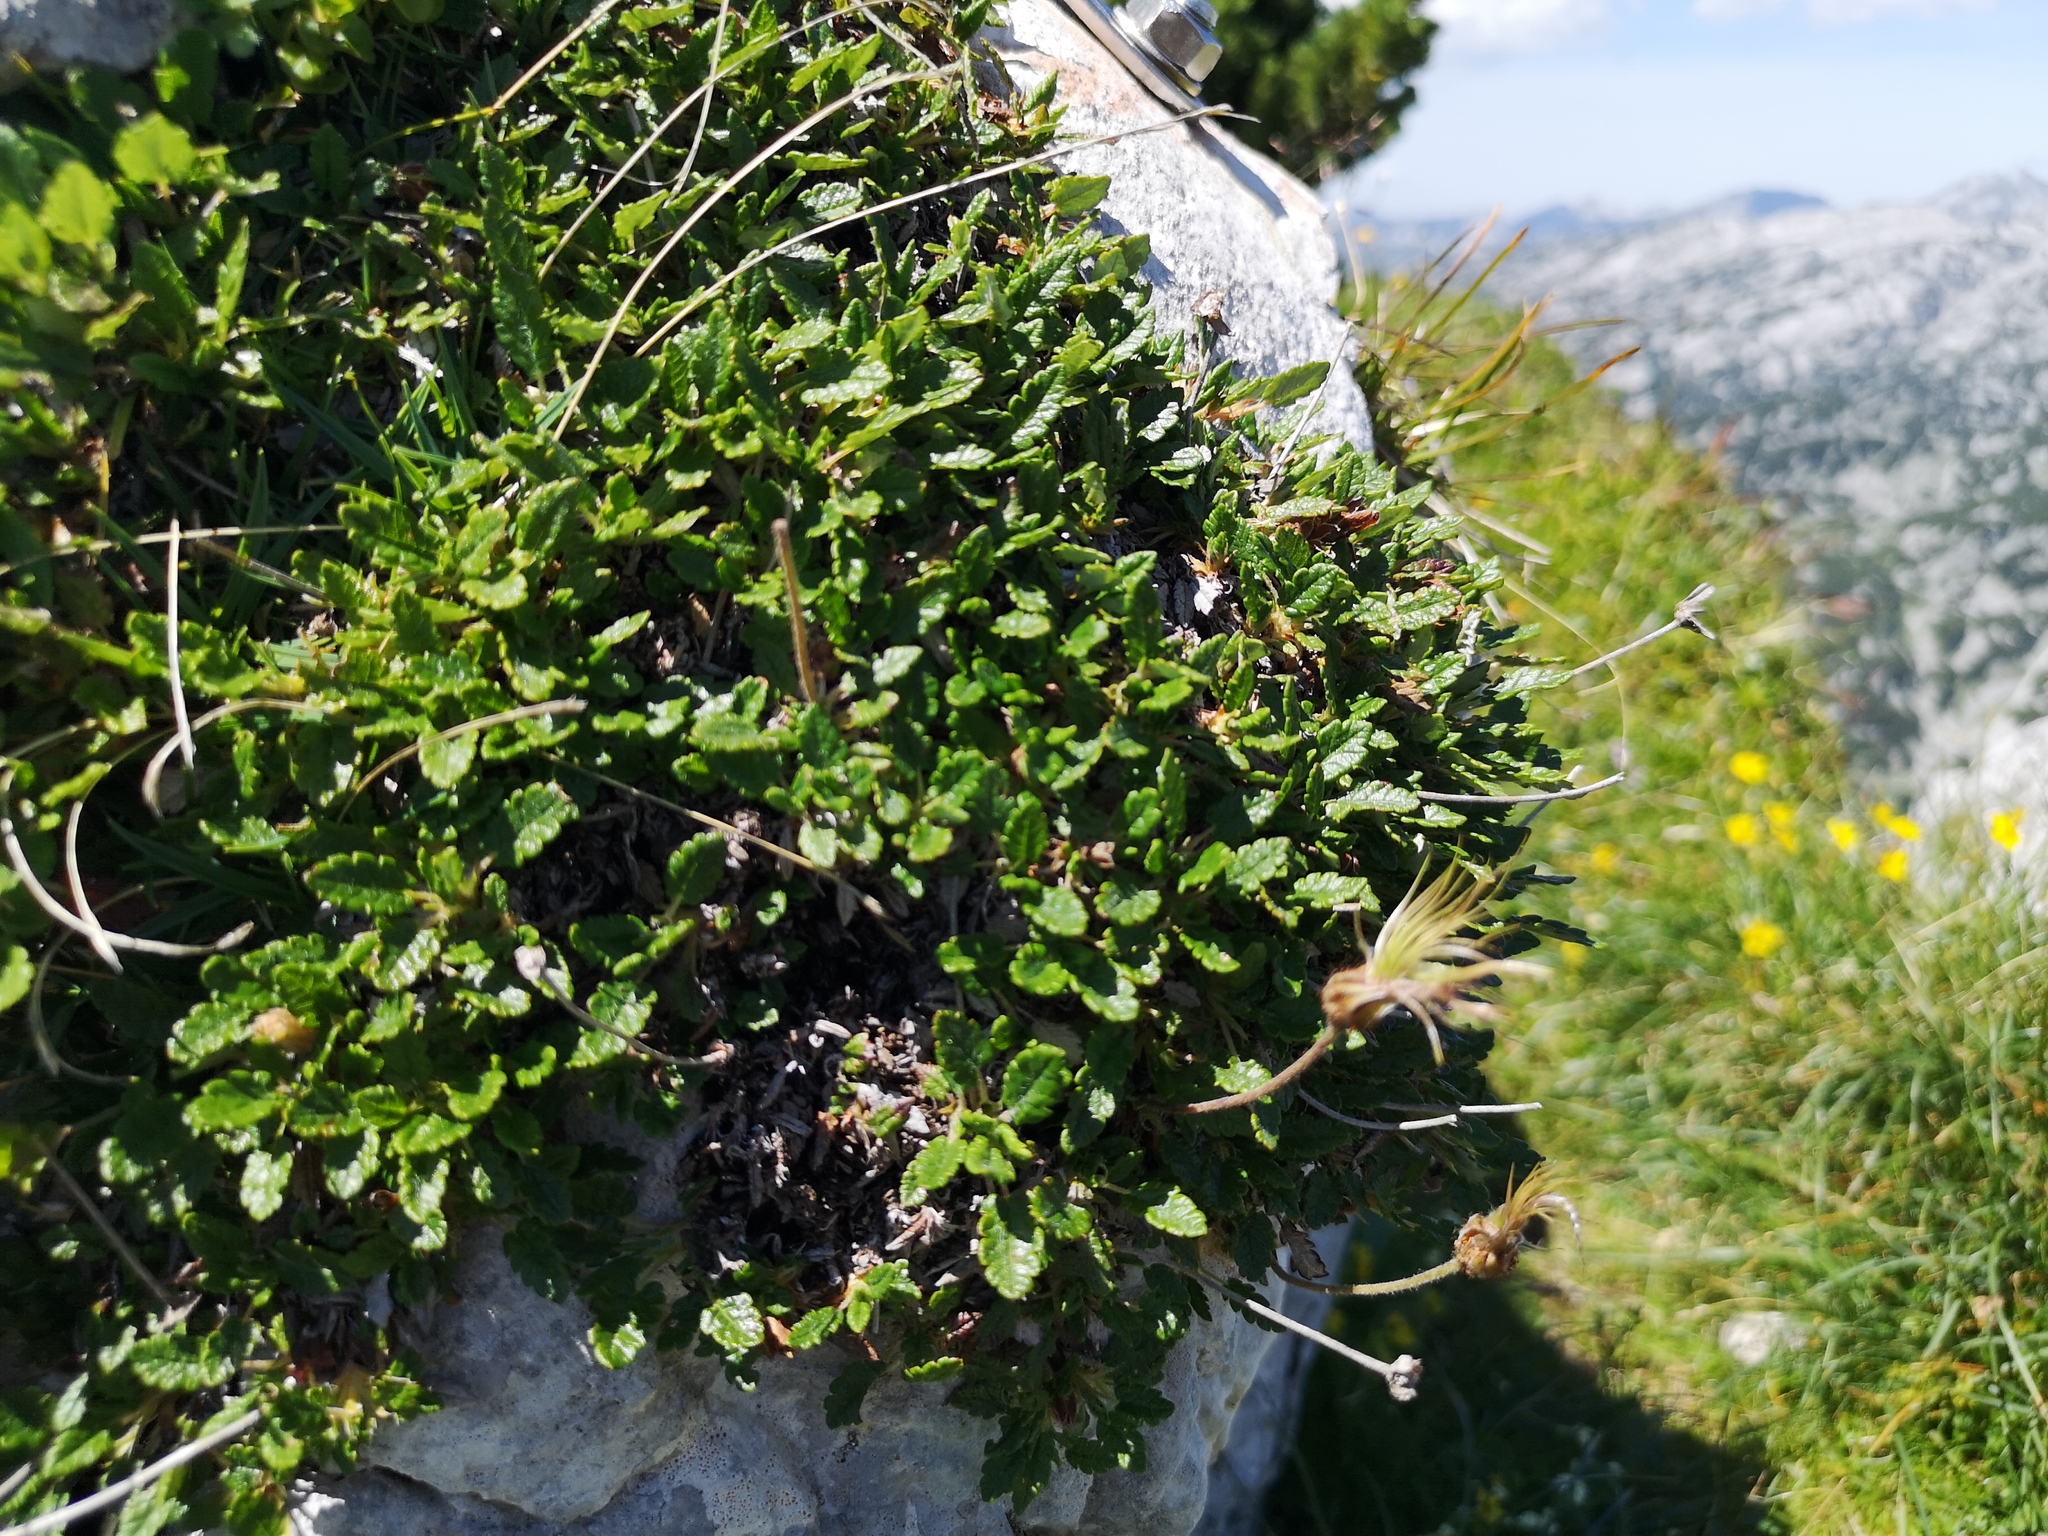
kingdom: Plantae
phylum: Tracheophyta
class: Magnoliopsida
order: Rosales
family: Rosaceae
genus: Dryas
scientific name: Dryas octopetala
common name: Eight-petal mountain-avens
